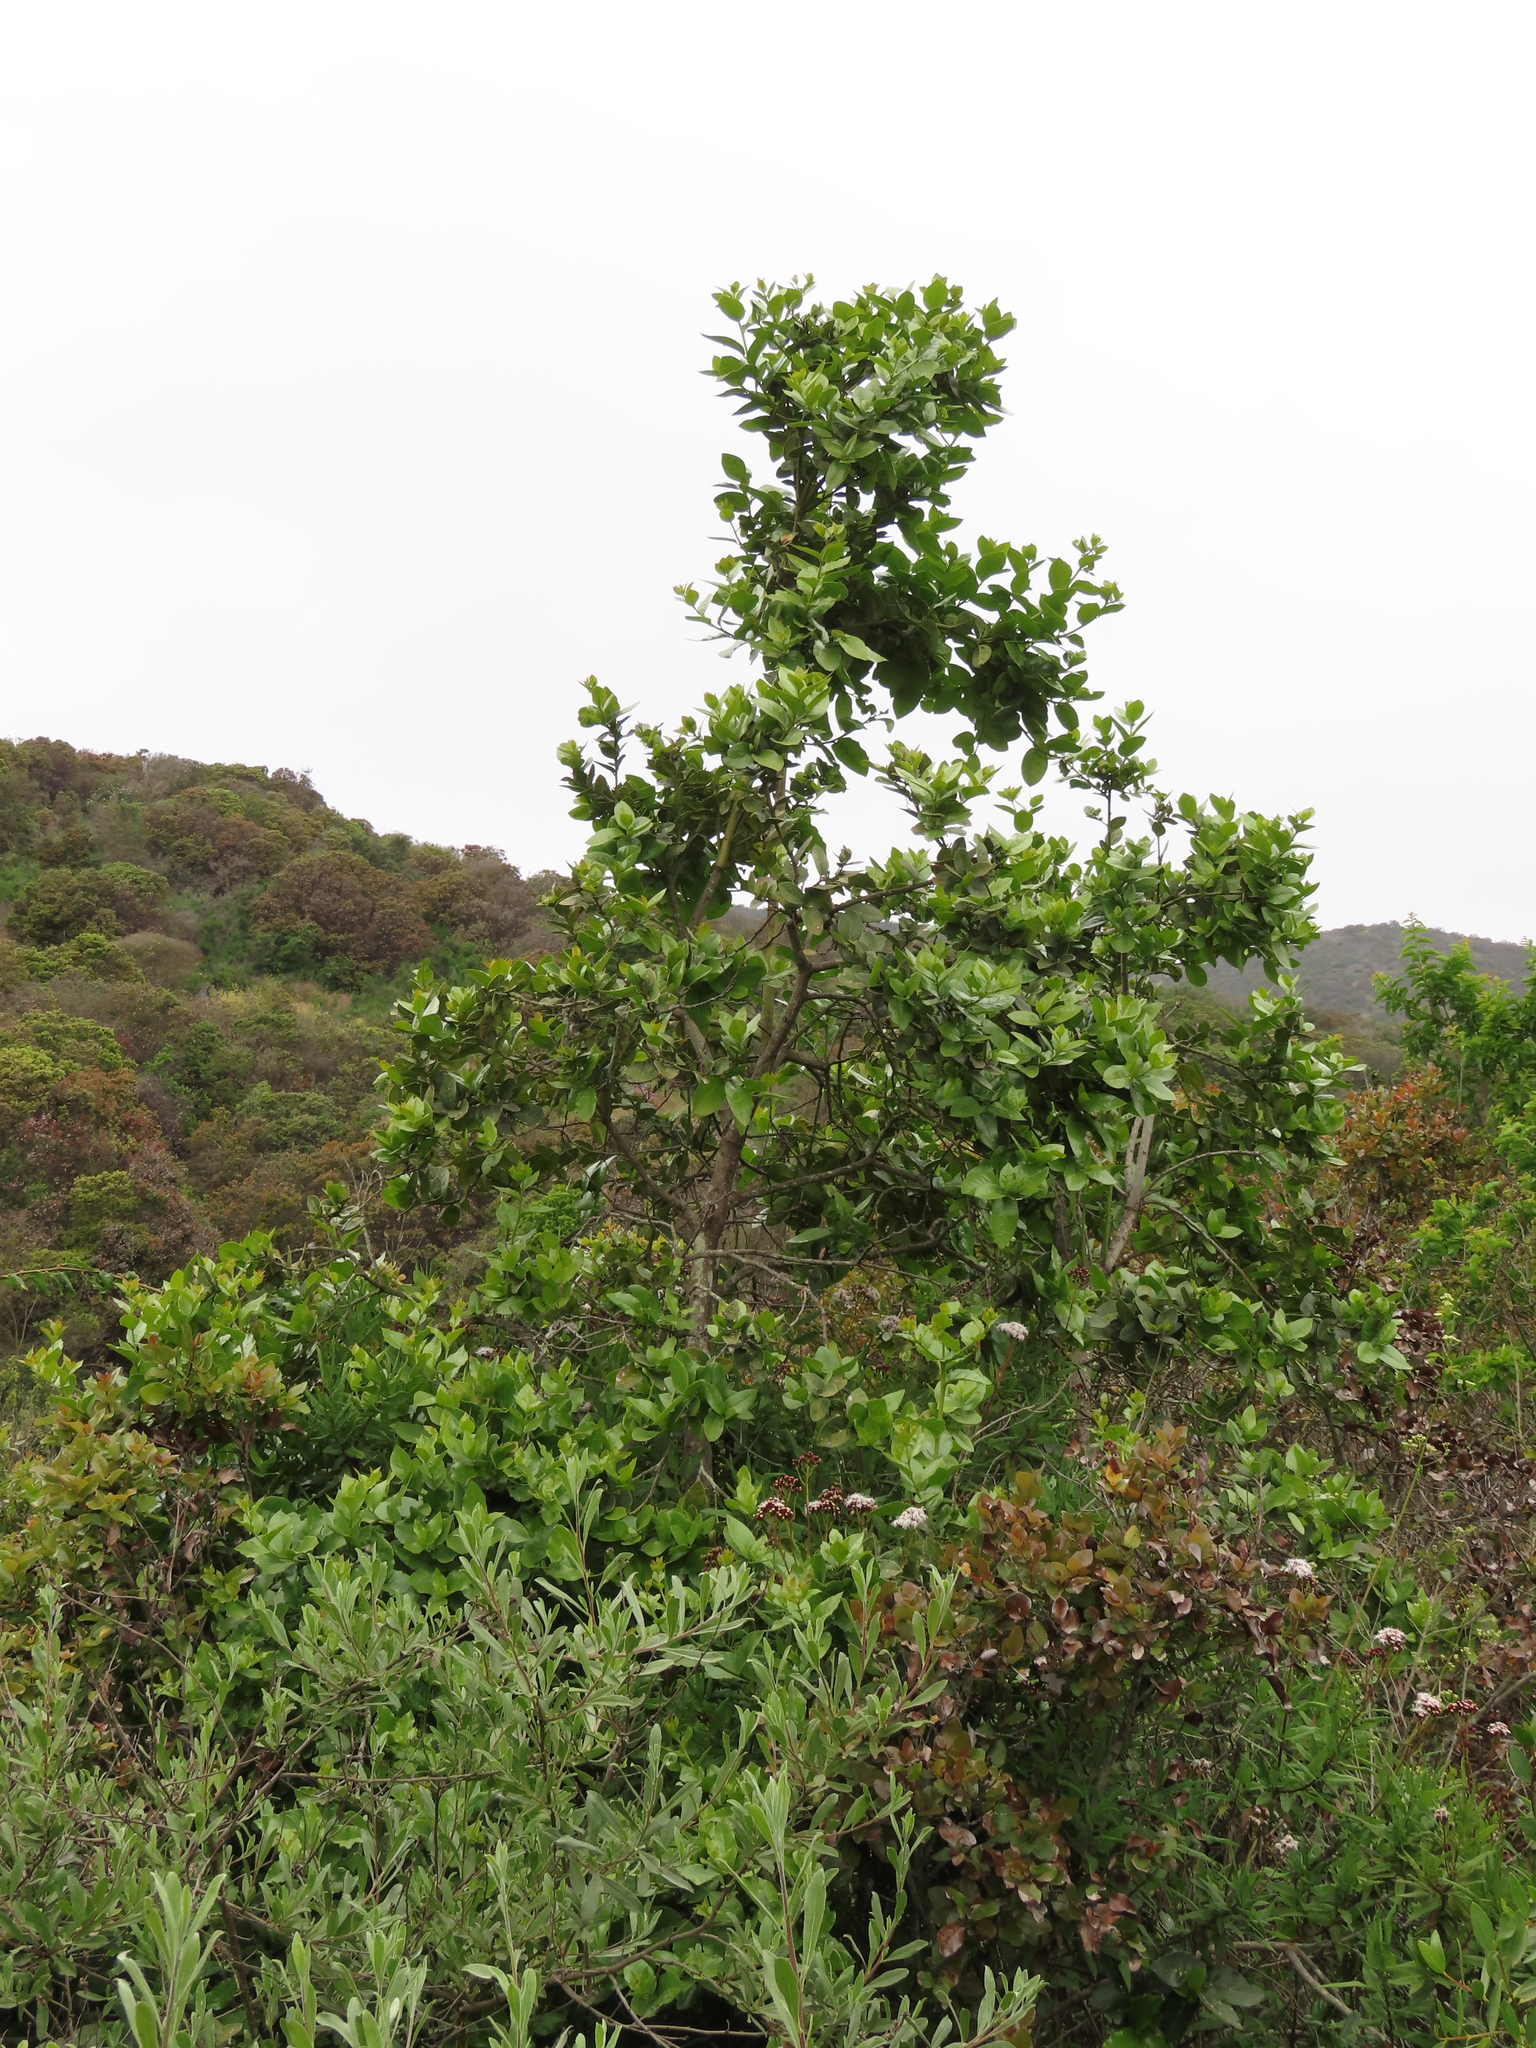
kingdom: Plantae
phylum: Tracheophyta
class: Magnoliopsida
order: Cardiopteridales
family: Cardiopteridaceae
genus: Citronella
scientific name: Citronella mucronata
